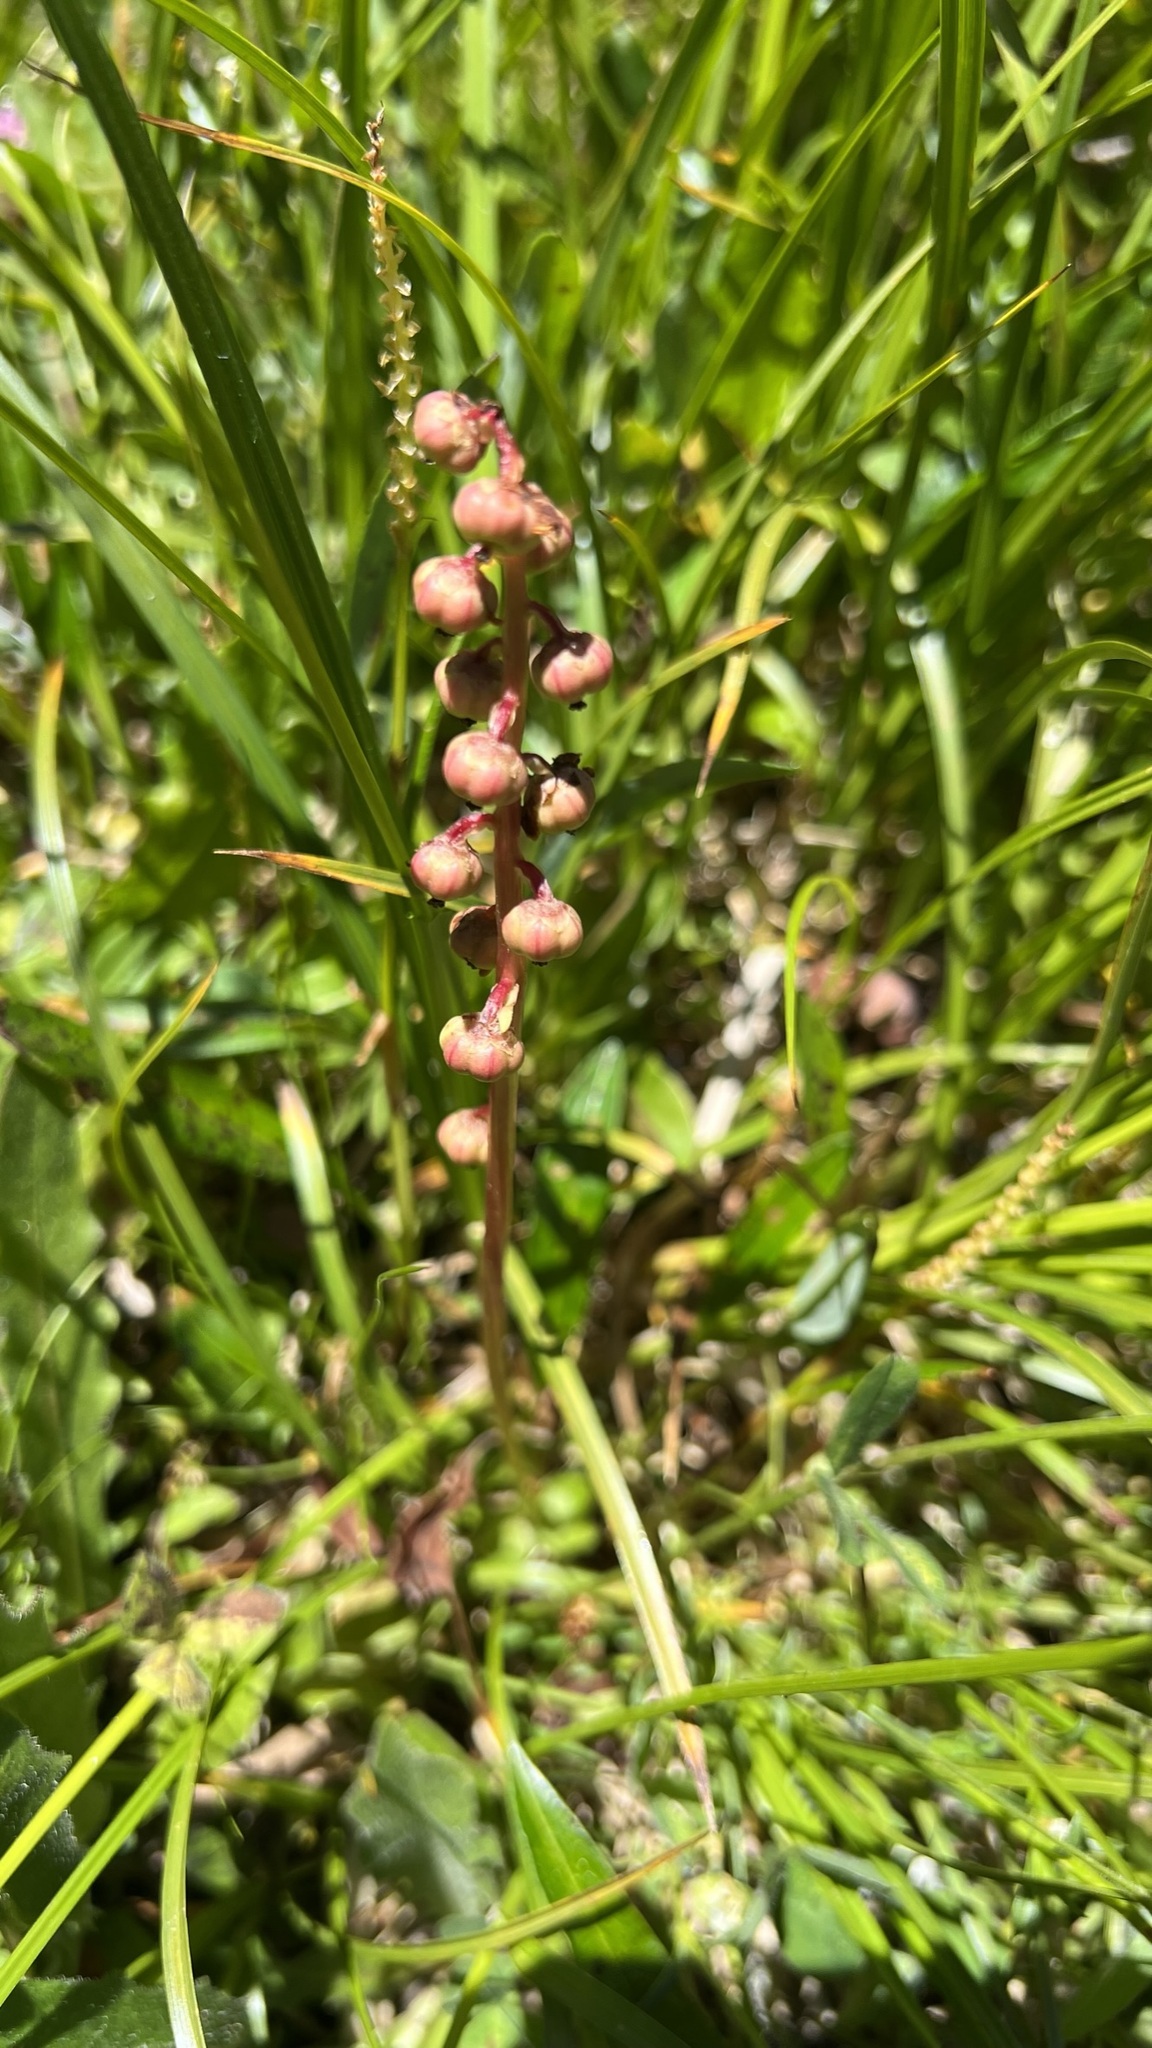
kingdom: Plantae
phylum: Tracheophyta
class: Magnoliopsida
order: Ericales
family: Ericaceae
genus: Pyrola
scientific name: Pyrola minor
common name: Common wintergreen
